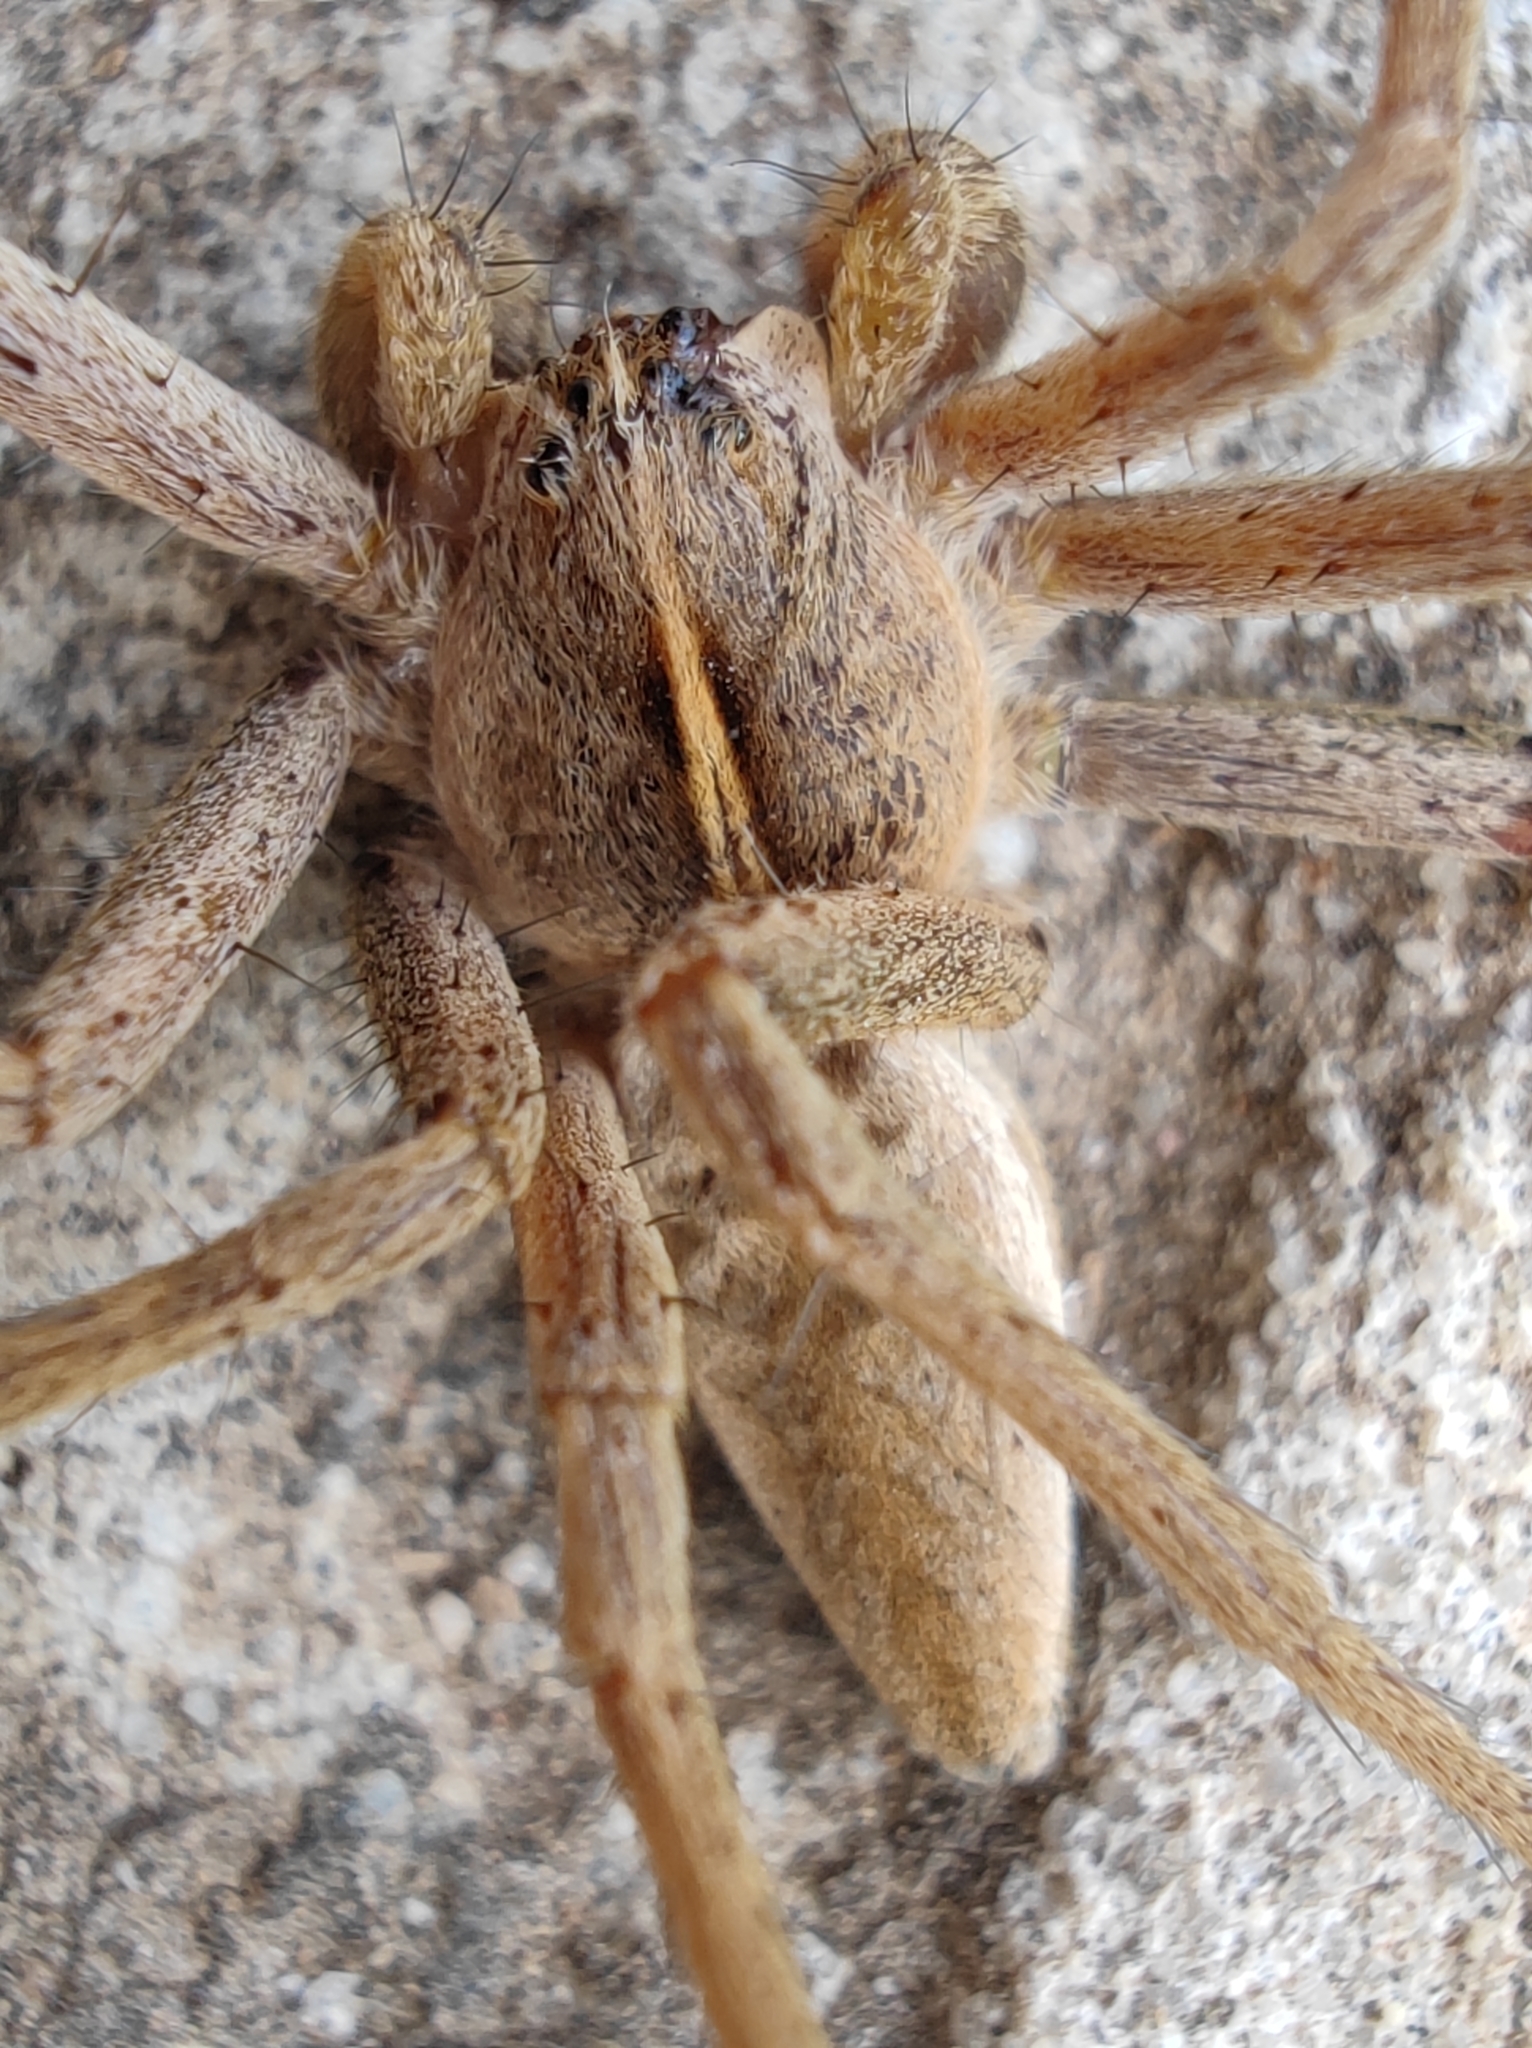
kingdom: Animalia
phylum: Arthropoda
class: Arachnida
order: Araneae
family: Pisauridae
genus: Pisaura
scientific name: Pisaura mirabilis
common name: Tent spider
